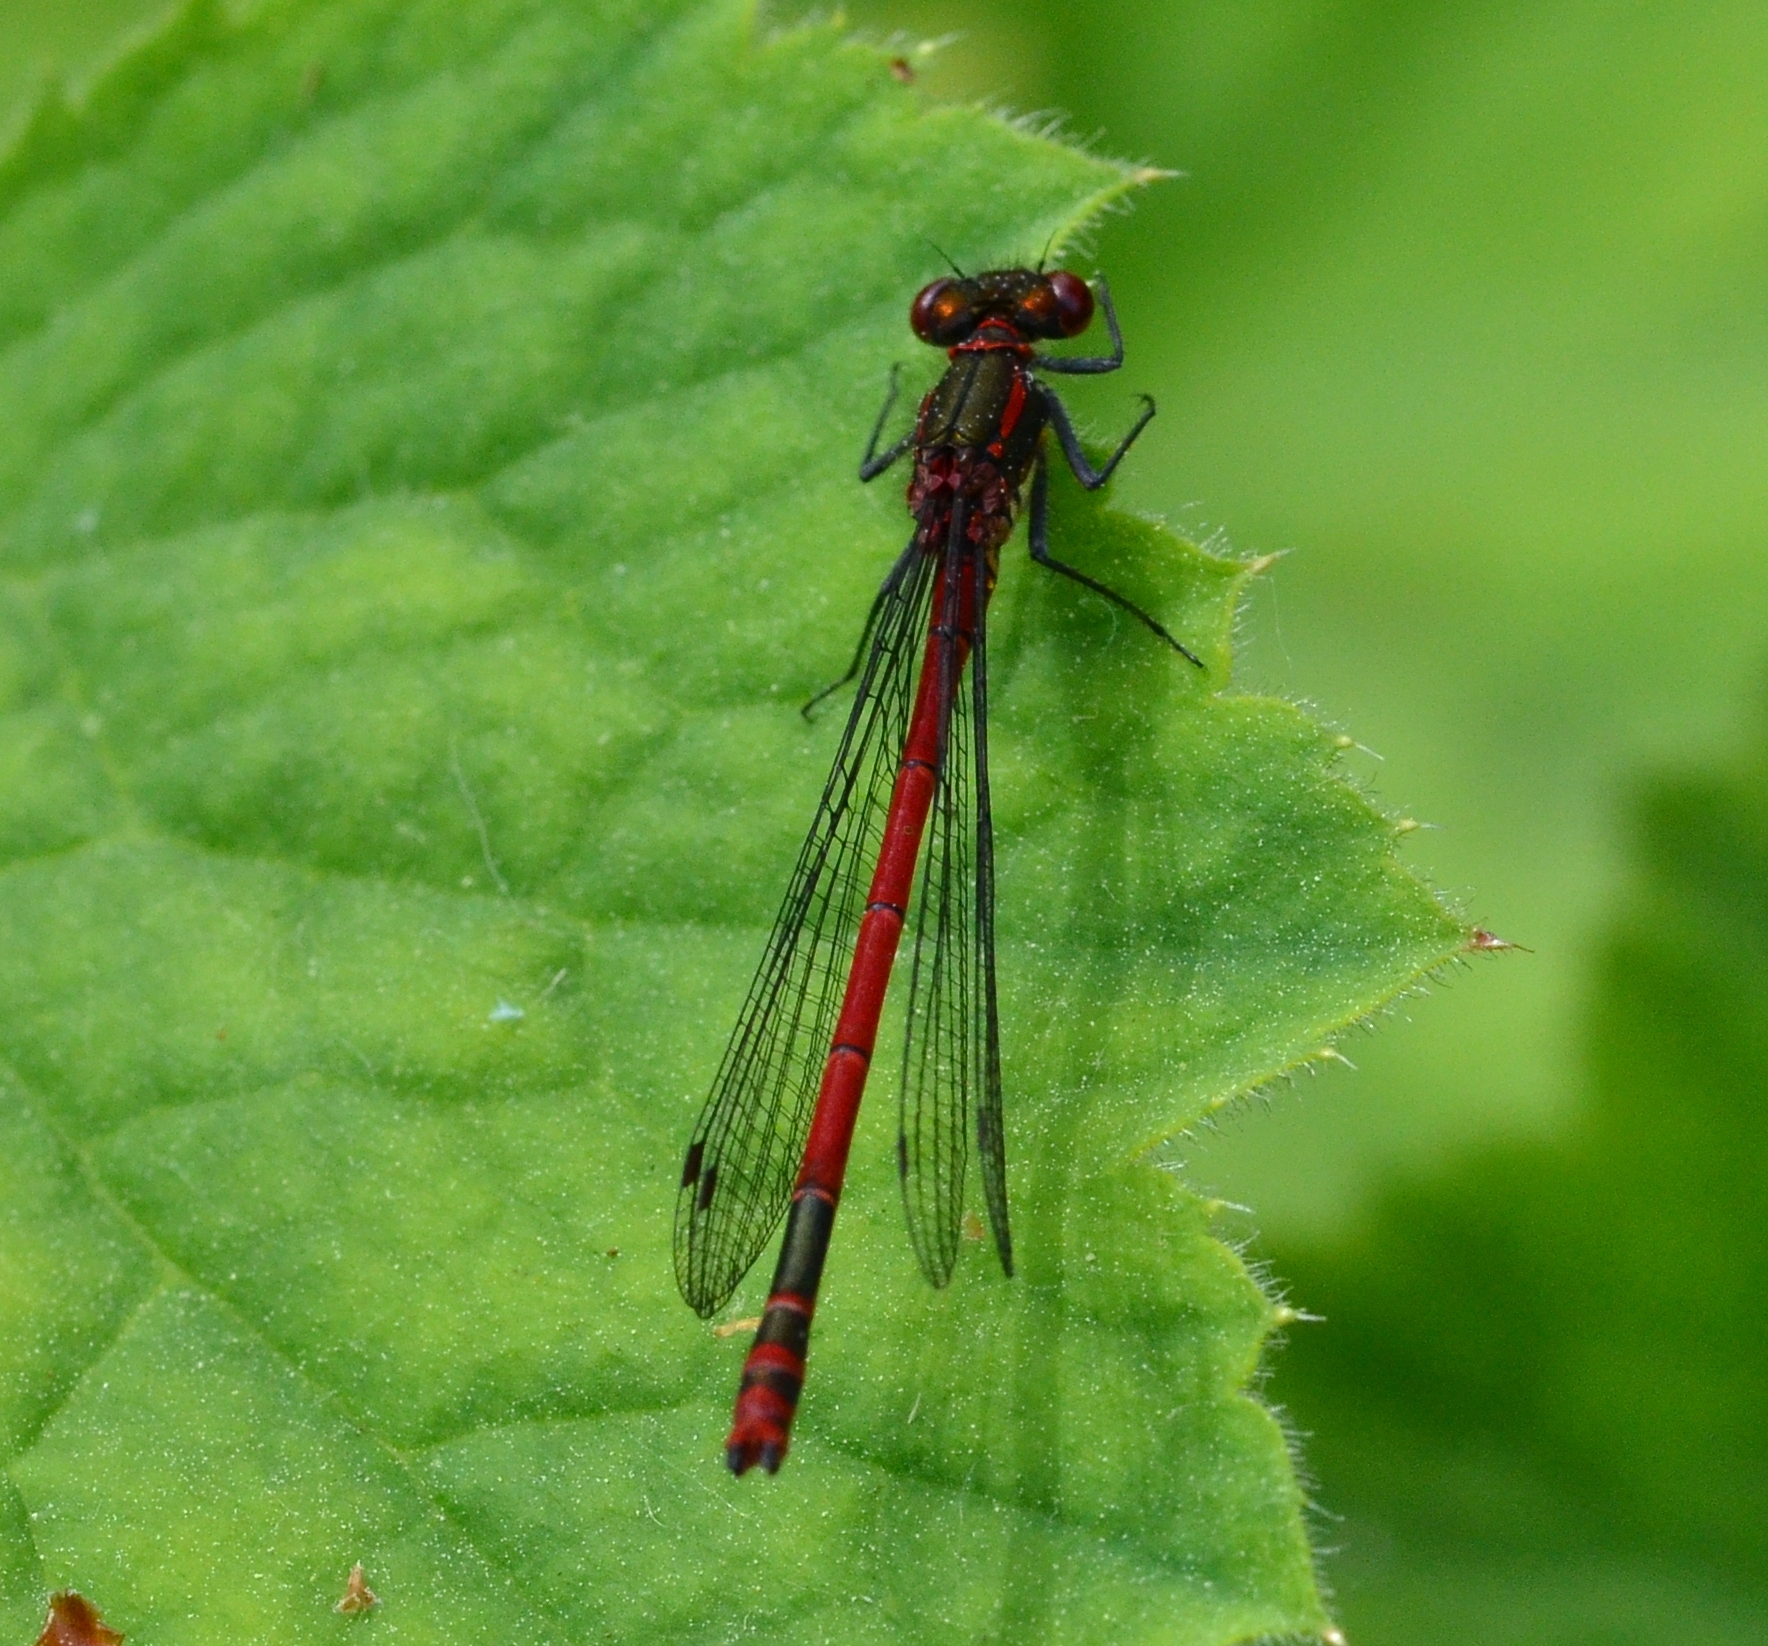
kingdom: Animalia
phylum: Arthropoda
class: Insecta
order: Odonata
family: Coenagrionidae
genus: Pyrrhosoma
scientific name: Pyrrhosoma nymphula
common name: Large red damsel
